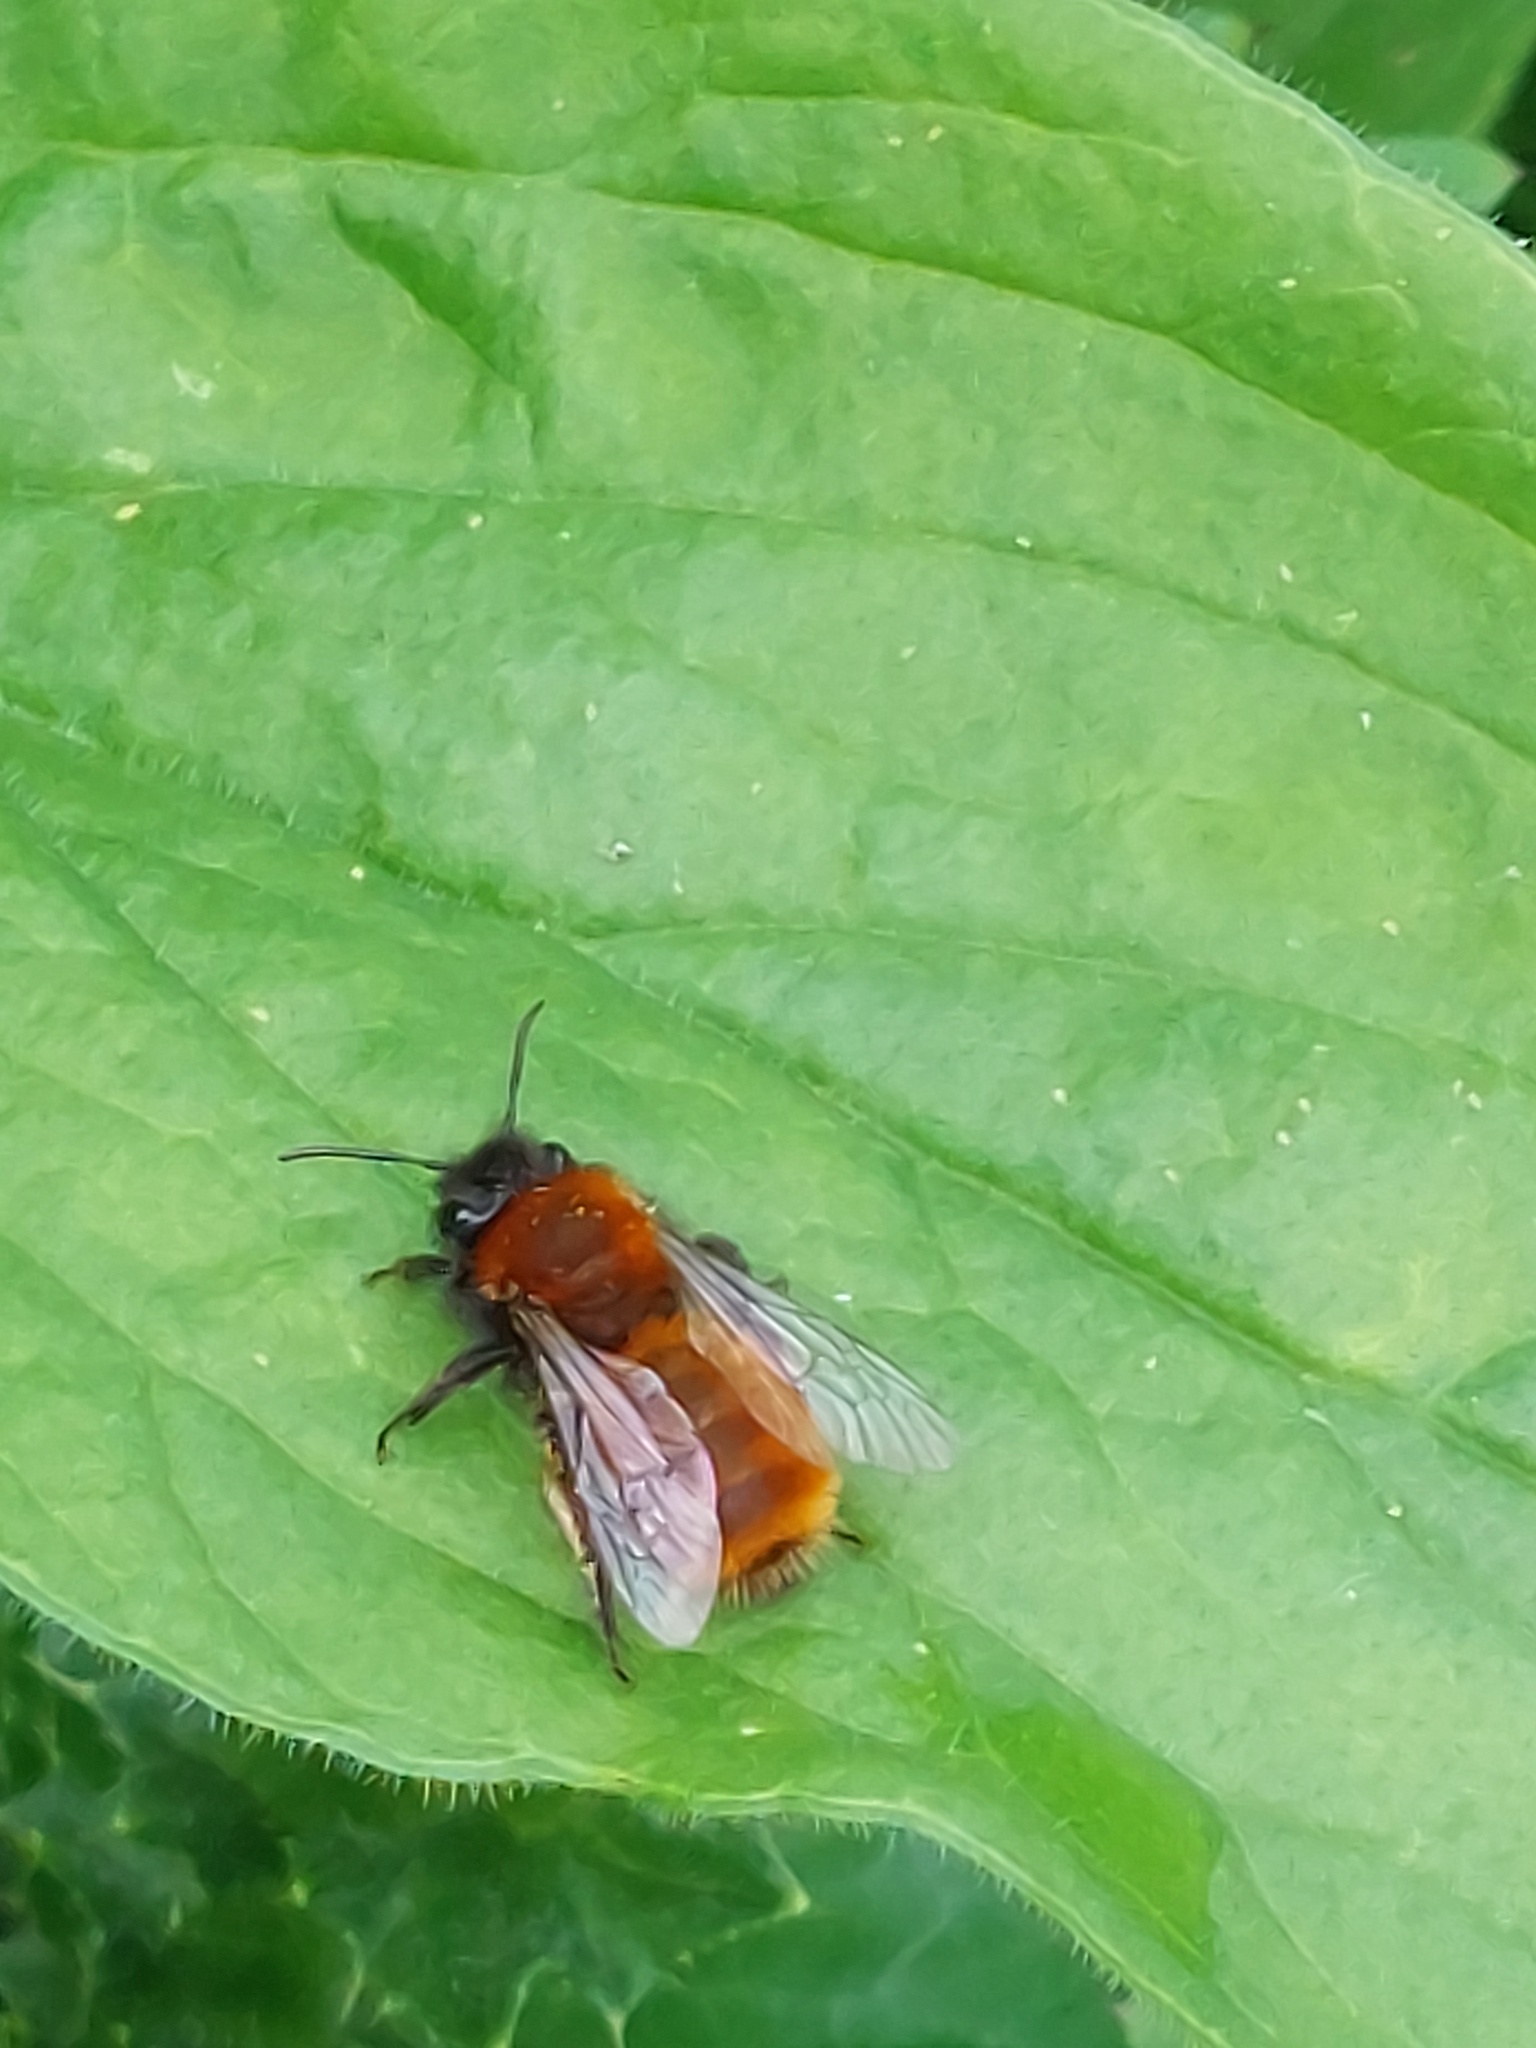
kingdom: Animalia
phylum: Arthropoda
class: Insecta
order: Hymenoptera
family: Andrenidae
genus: Andrena
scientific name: Andrena fulva
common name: Tawny mining bee
